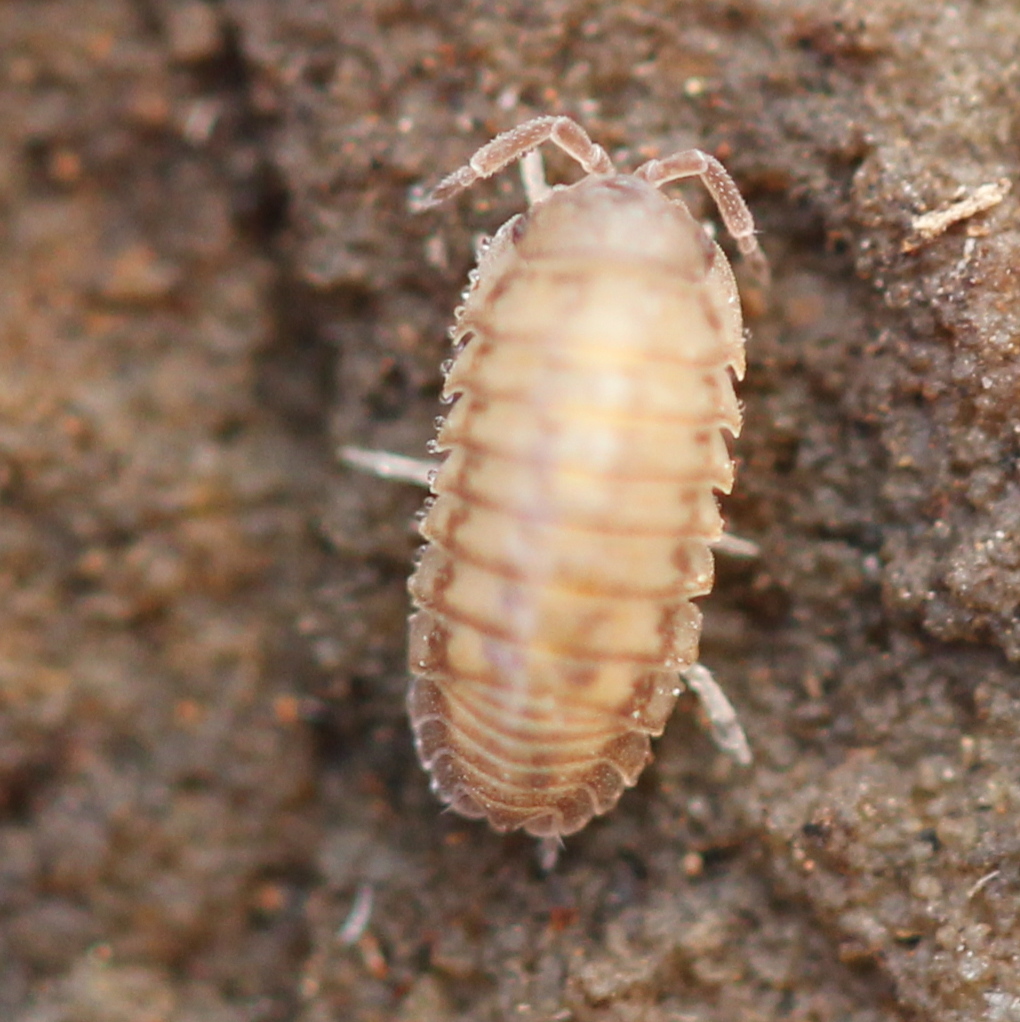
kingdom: Animalia
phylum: Arthropoda
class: Malacostraca
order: Isopoda
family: Armadillidiidae
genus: Armadillidium
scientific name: Armadillidium nasatum
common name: Isopod
